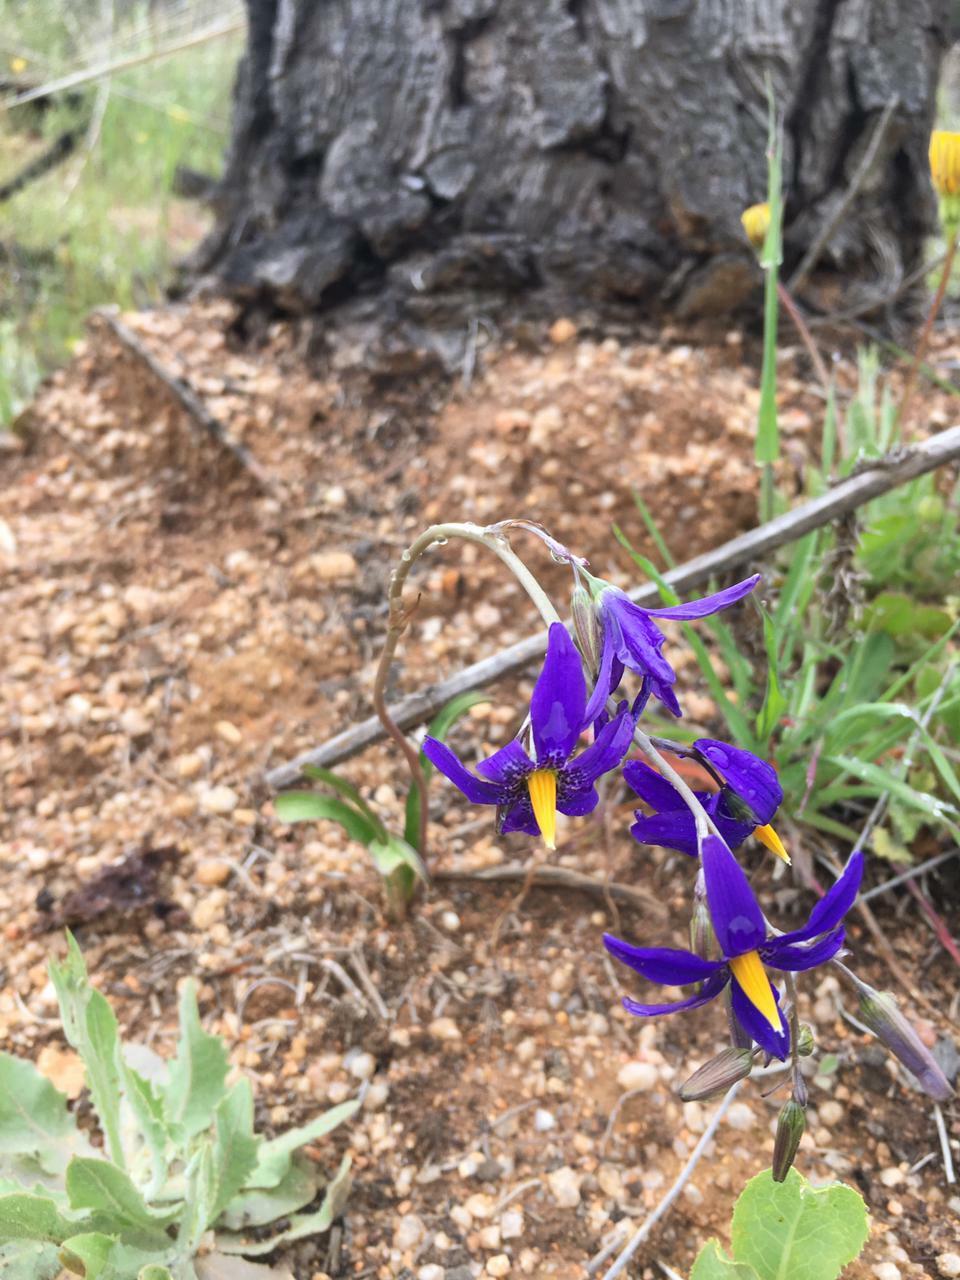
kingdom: Plantae
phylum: Tracheophyta
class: Liliopsida
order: Asparagales
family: Tecophilaeaceae
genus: Conanthera
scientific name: Conanthera bifolia
